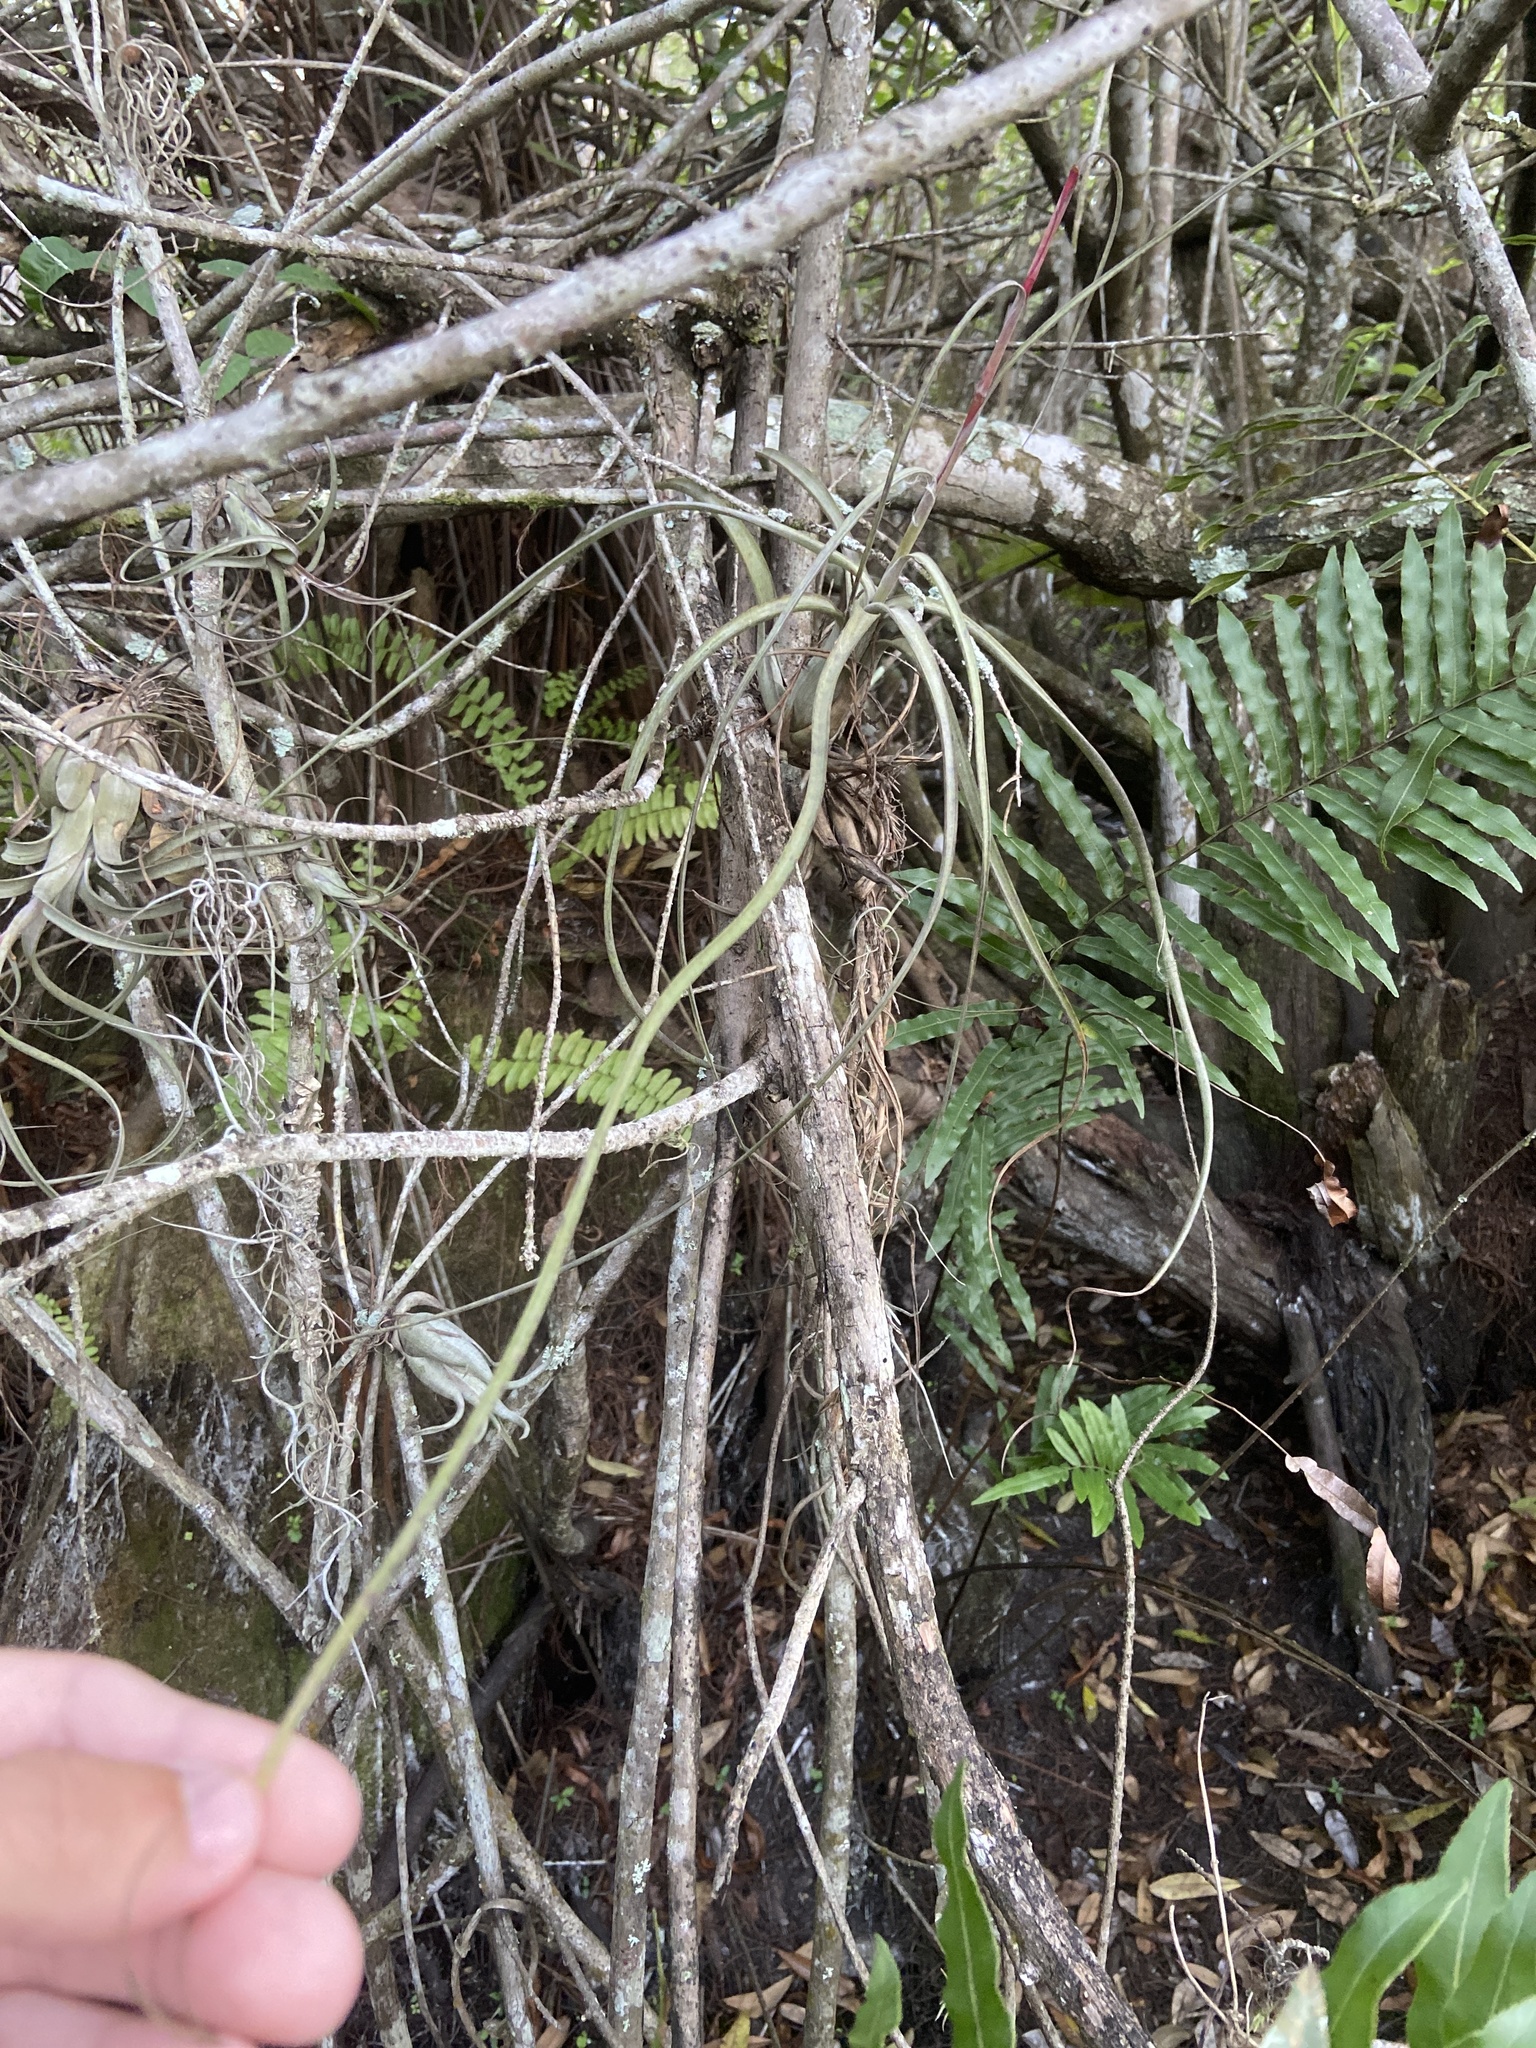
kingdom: Plantae
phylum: Tracheophyta
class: Liliopsida
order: Poales
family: Bromeliaceae
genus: Tillandsia
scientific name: Tillandsia balbisiana
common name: Northern needleleaf
